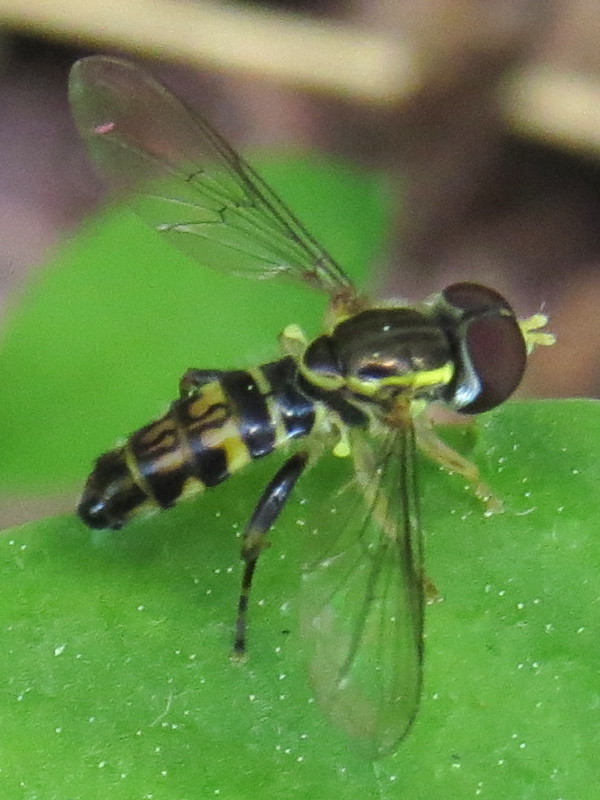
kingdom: Animalia
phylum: Arthropoda
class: Insecta
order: Diptera
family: Syrphidae
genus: Toxomerus
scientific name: Toxomerus geminatus
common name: Eastern calligrapher
